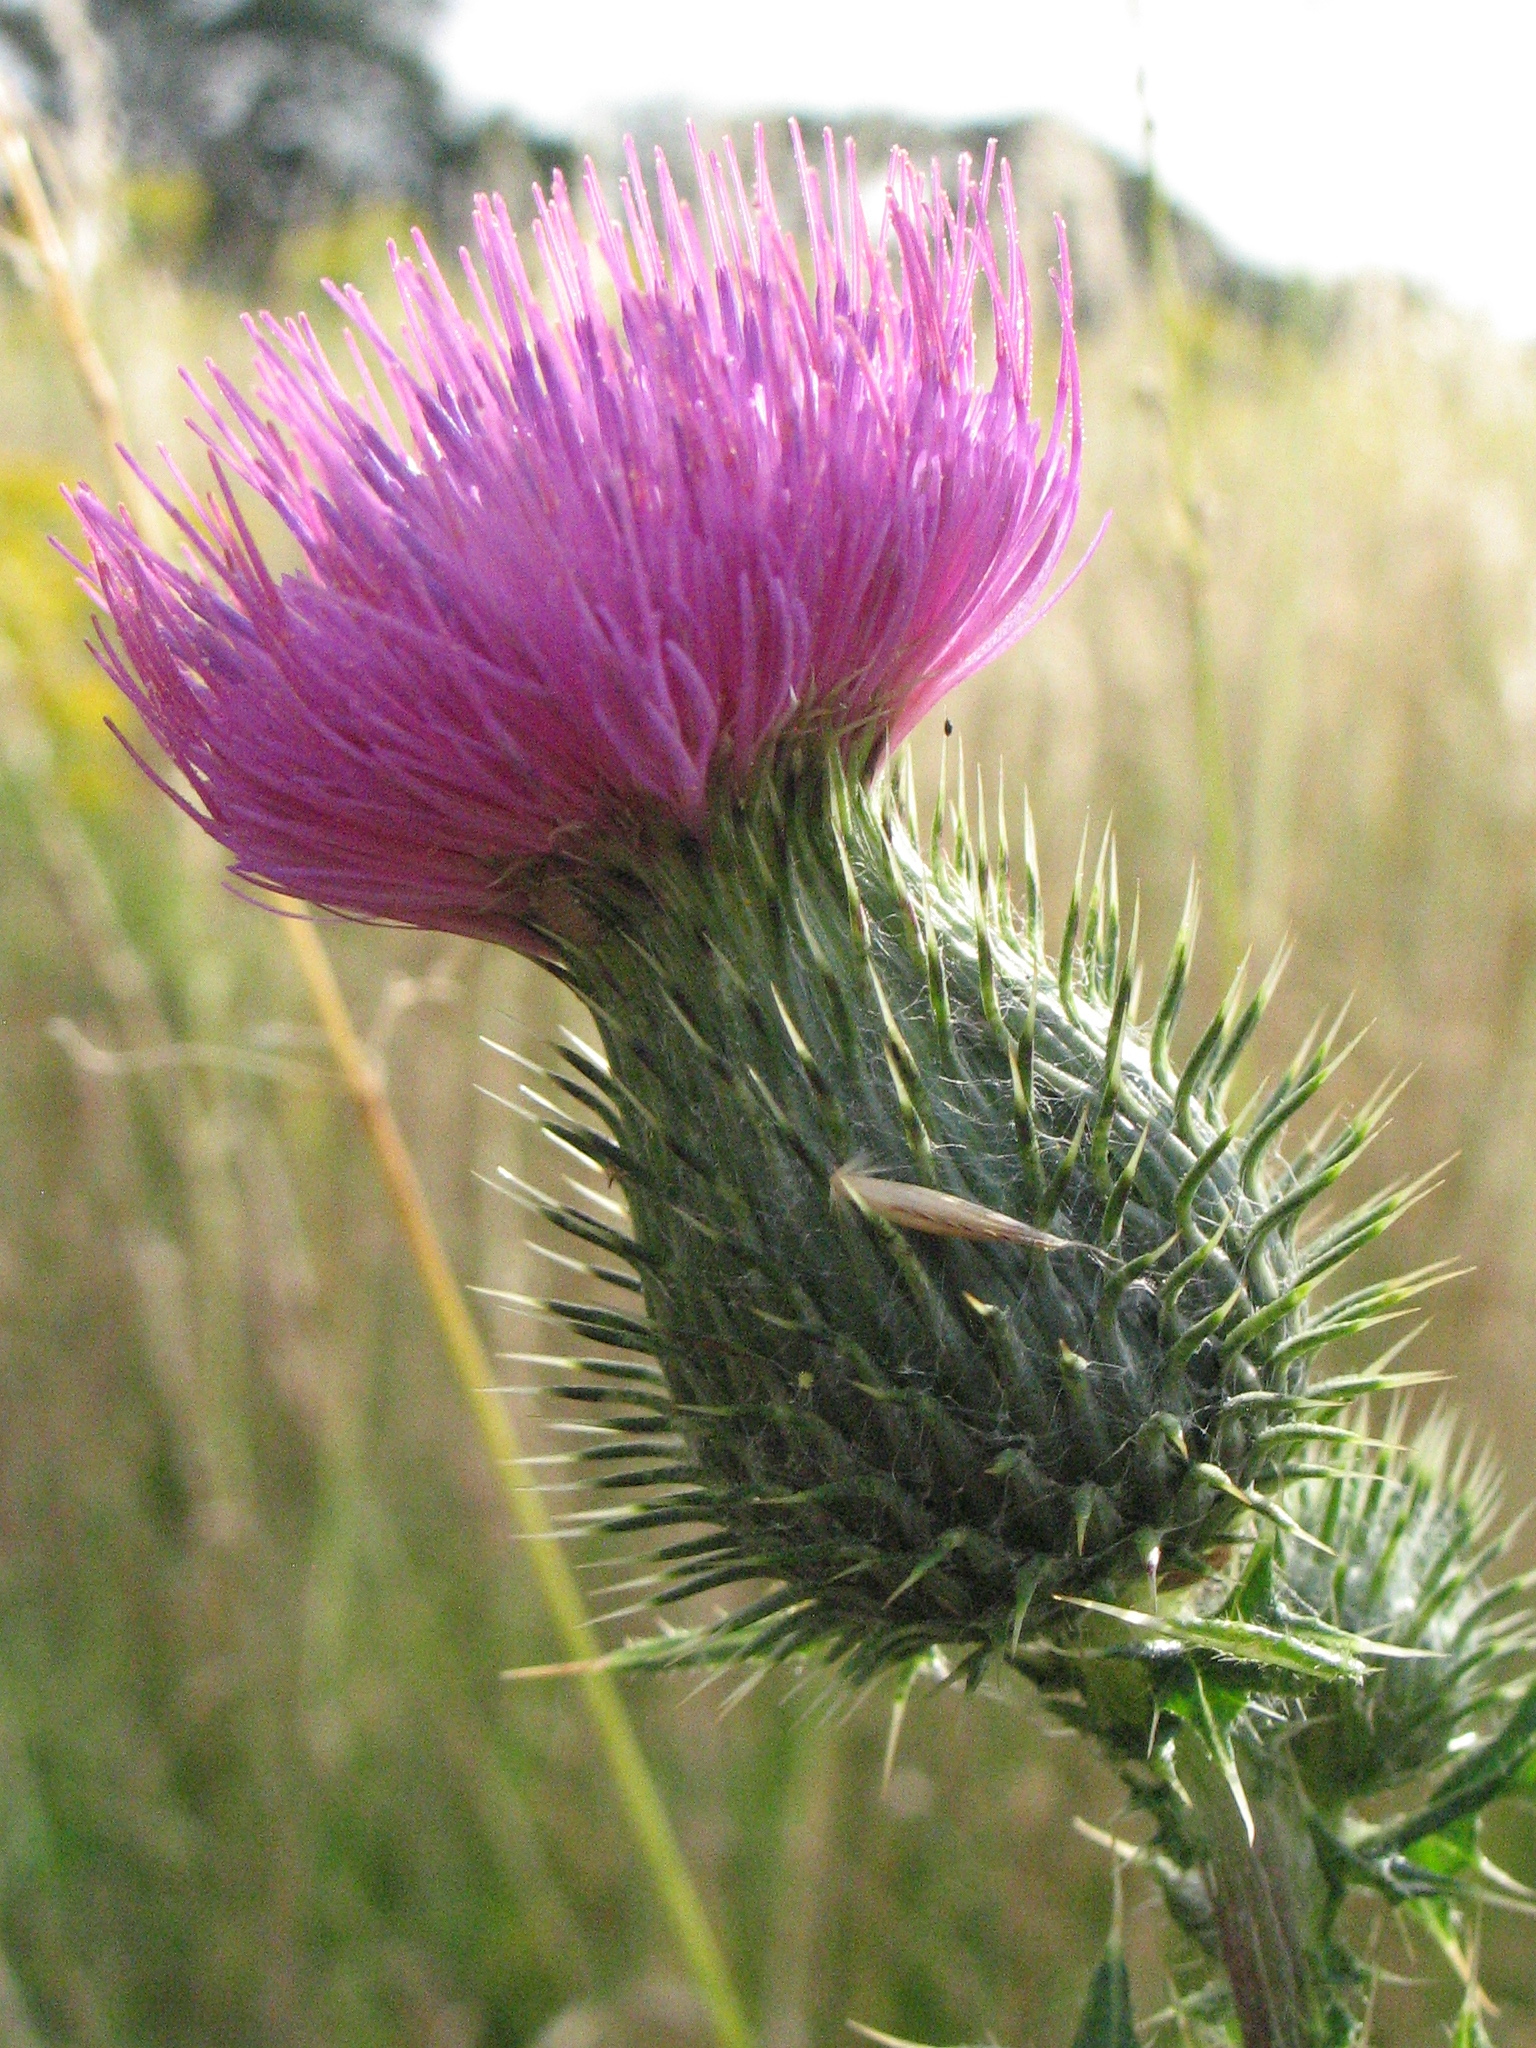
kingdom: Plantae
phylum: Tracheophyta
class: Magnoliopsida
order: Asterales
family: Asteraceae
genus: Cirsium
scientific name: Cirsium vulgare
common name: Bull thistle
